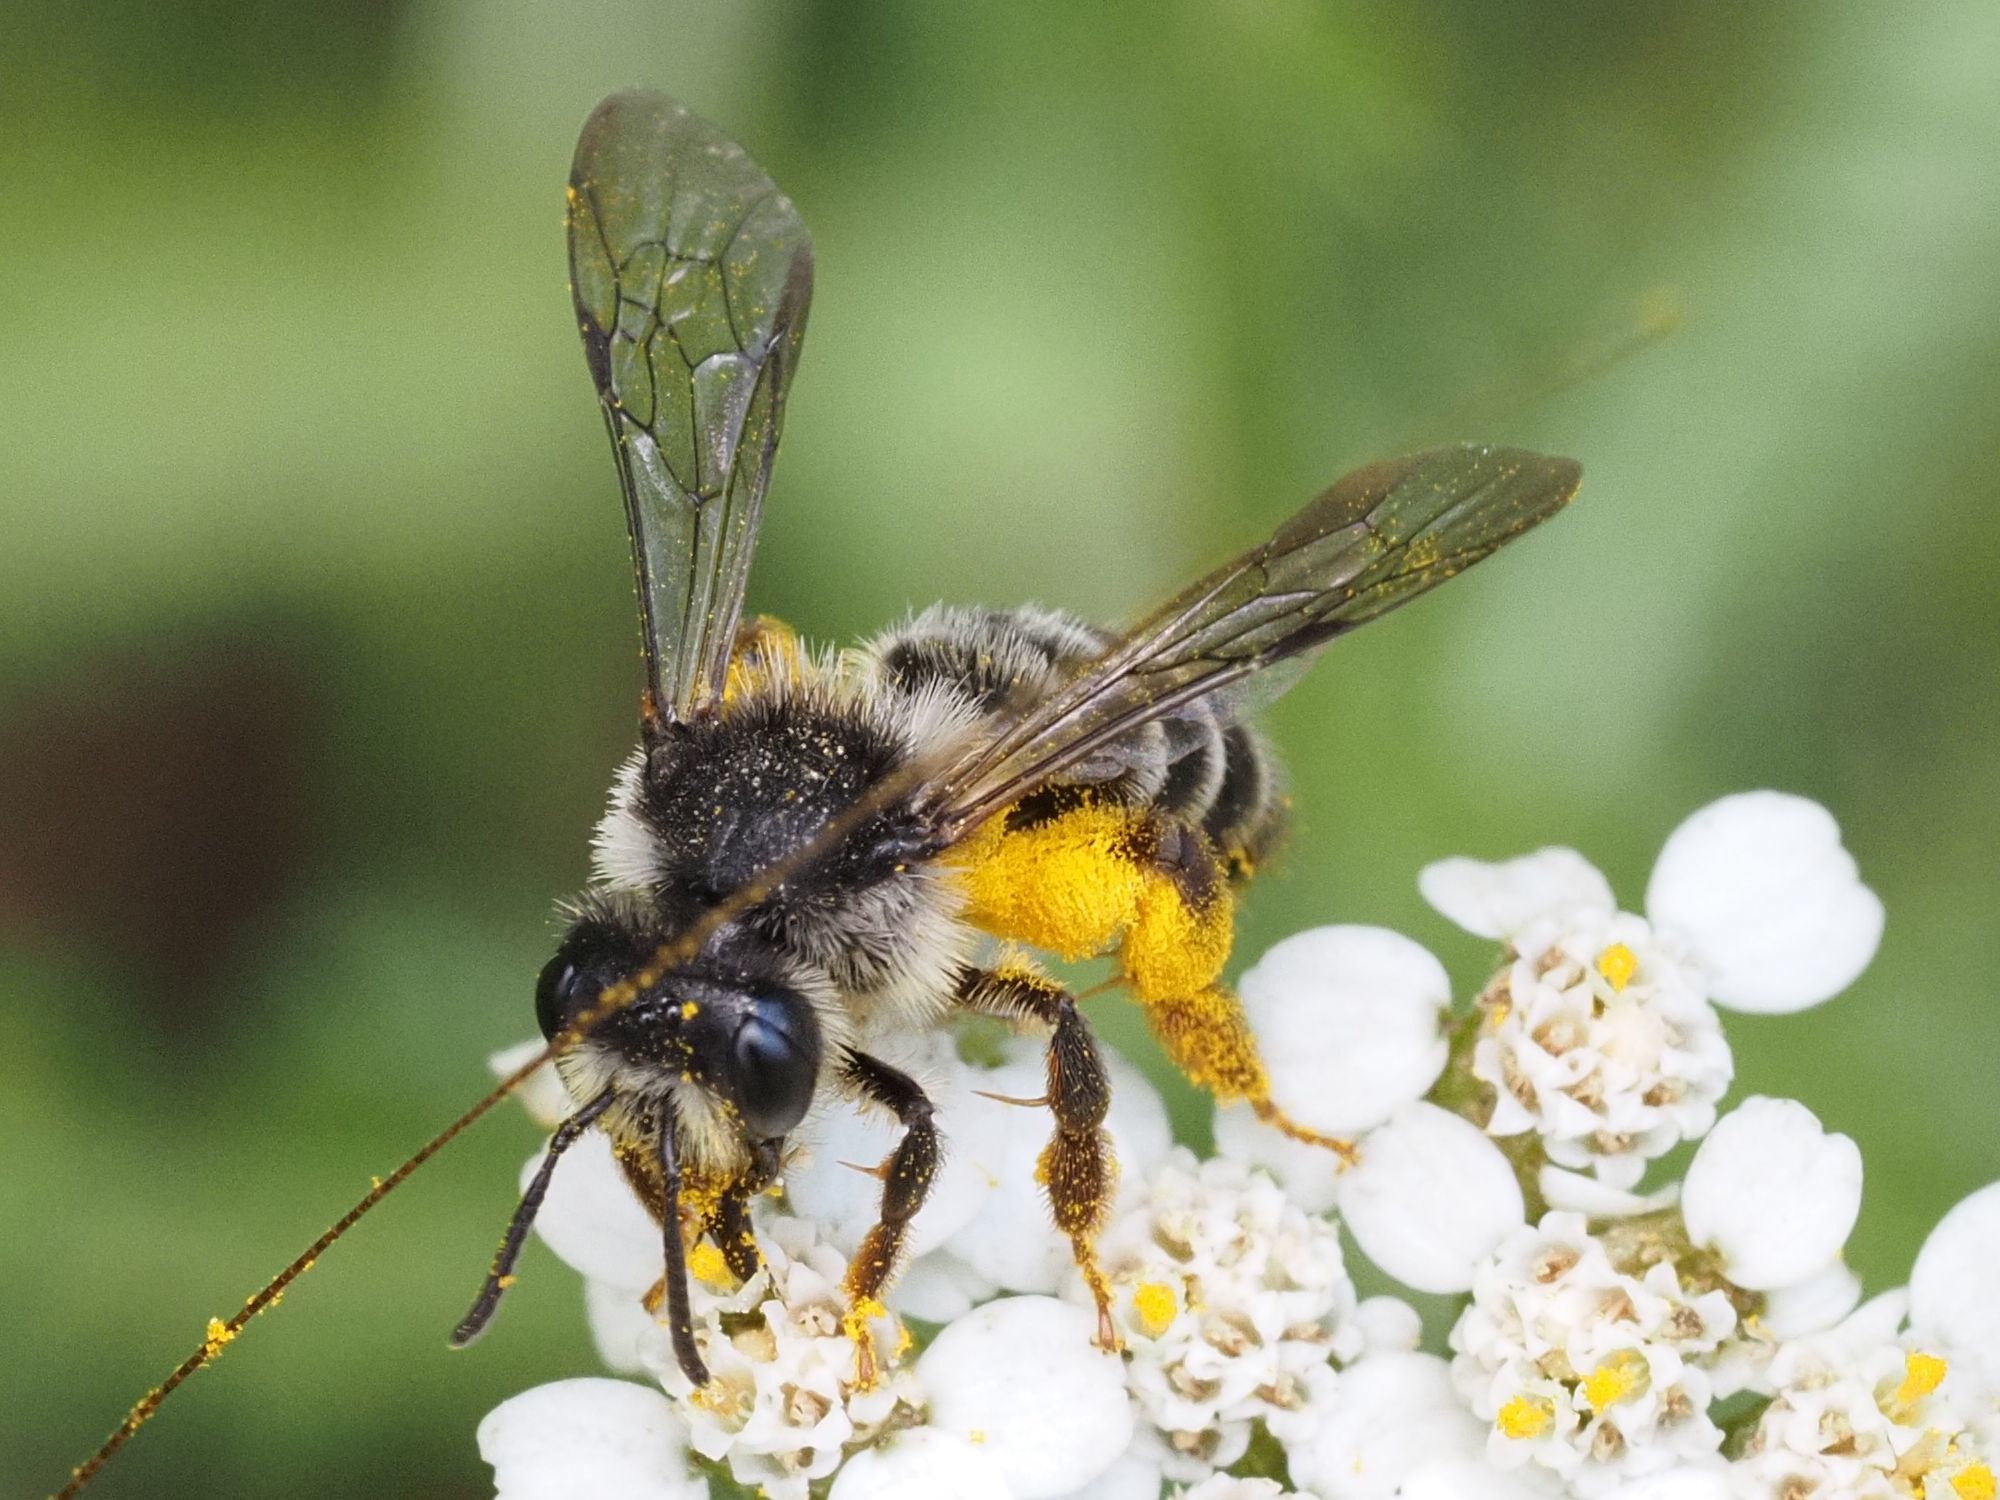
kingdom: Animalia
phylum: Arthropoda
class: Insecta
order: Hymenoptera
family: Andrenidae
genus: Andrena
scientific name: Andrena denticulata
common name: Grey-banded mining bee
